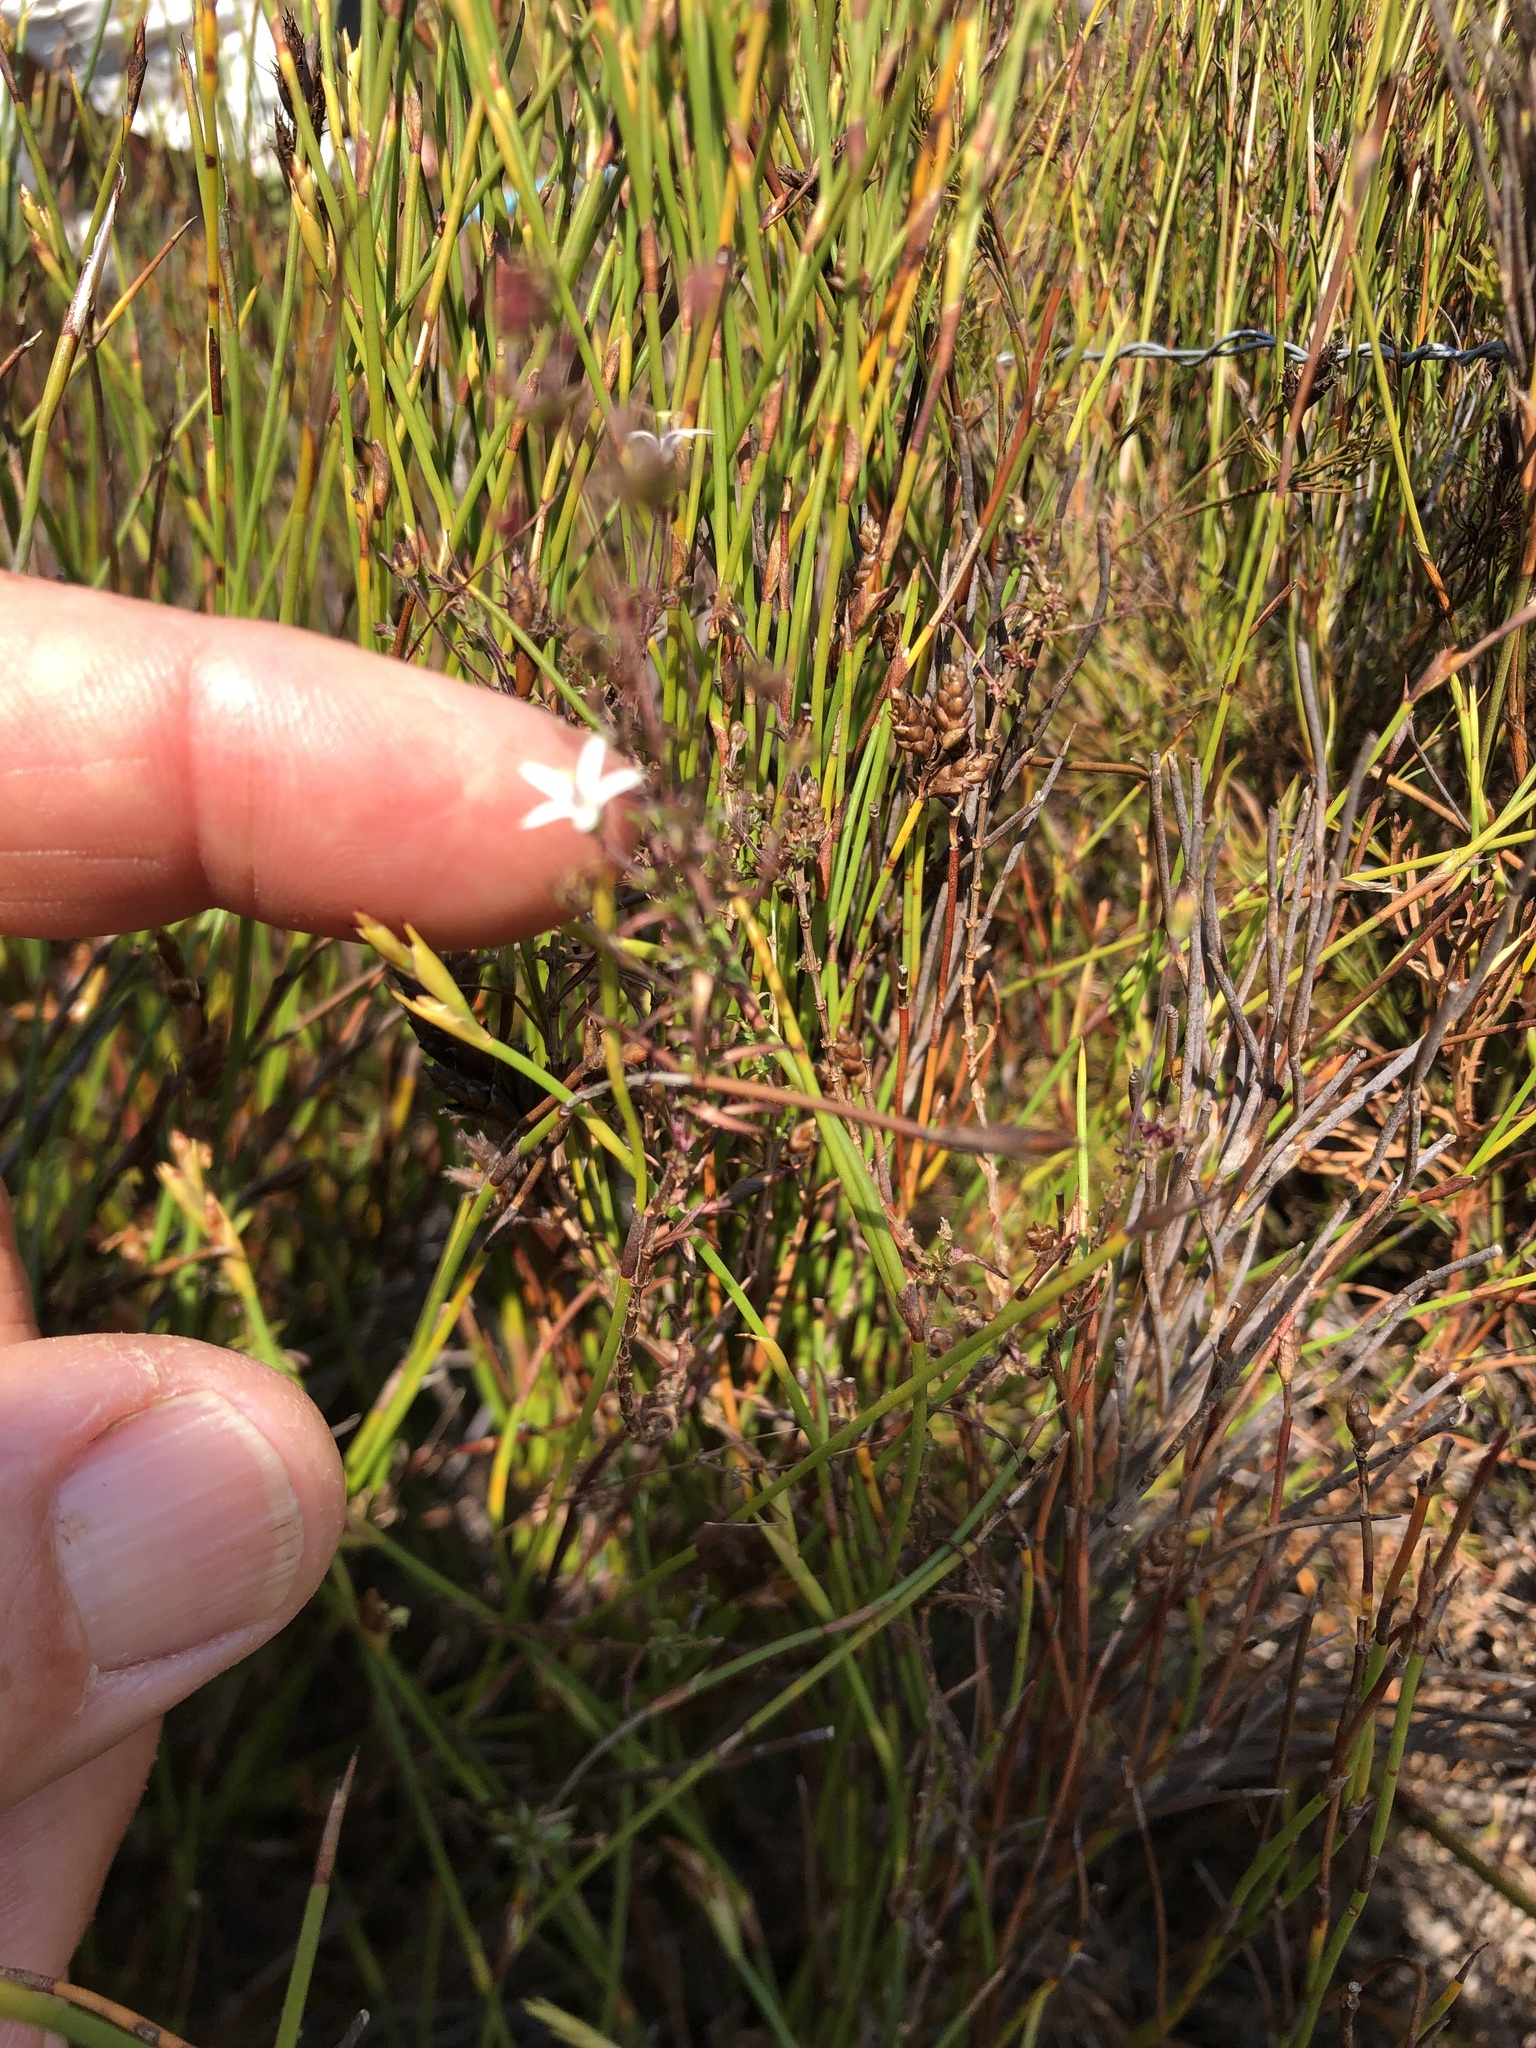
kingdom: Plantae
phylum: Tracheophyta
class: Magnoliopsida
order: Asterales
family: Campanulaceae
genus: Wahlenbergia
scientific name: Wahlenbergia longifolia
